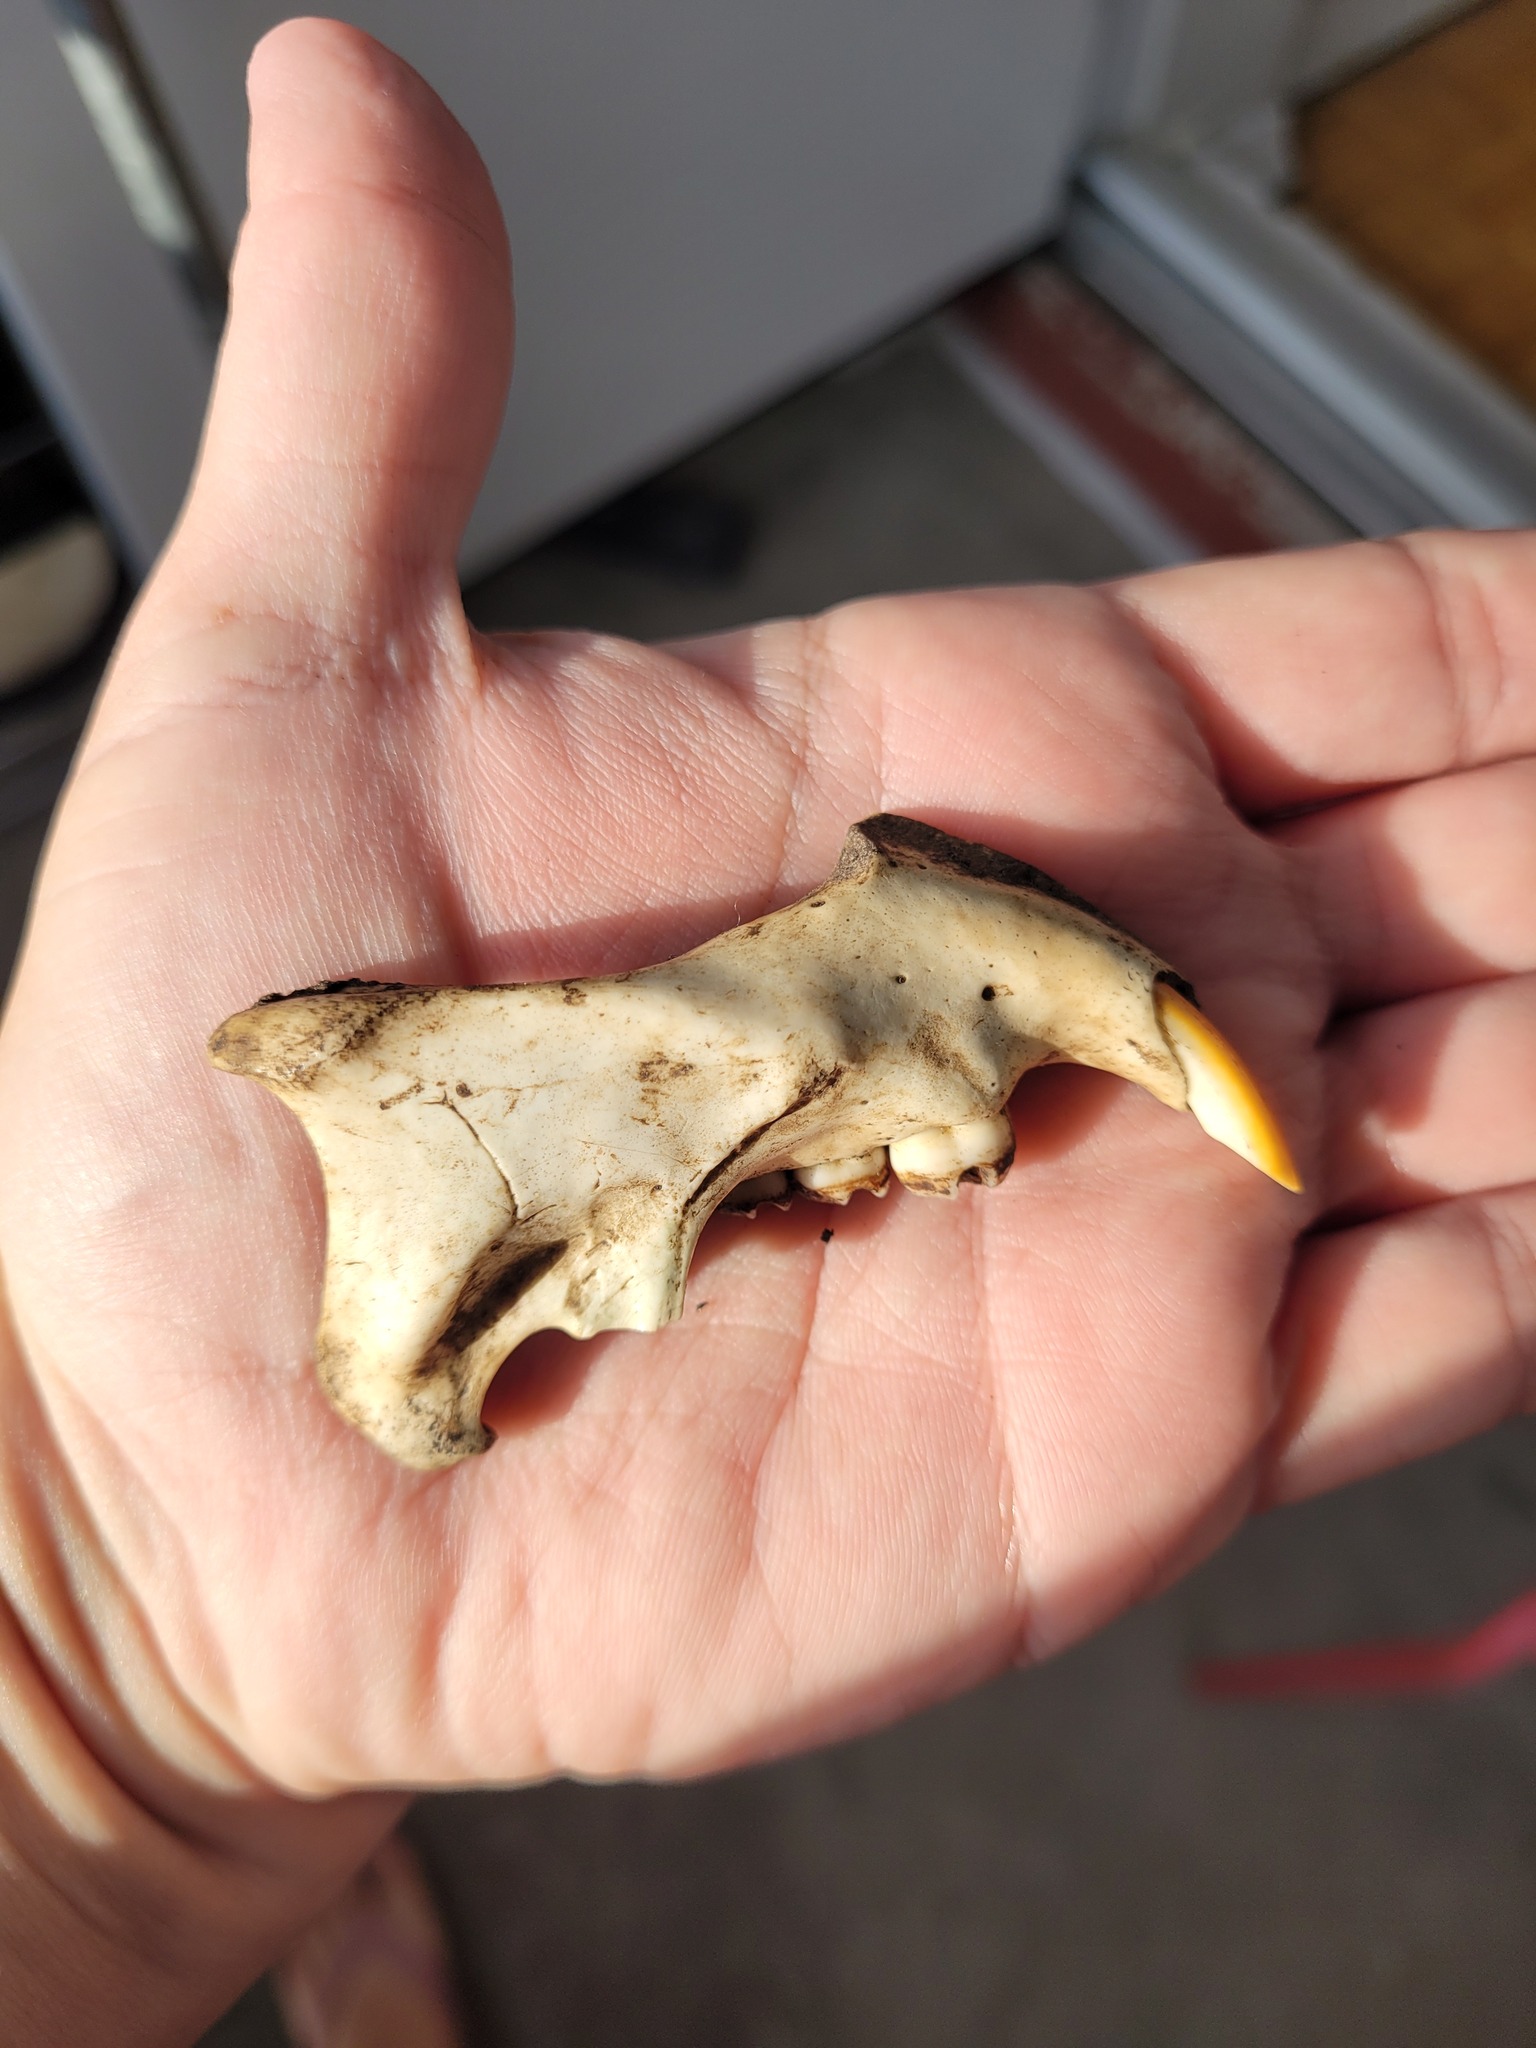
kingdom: Animalia
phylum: Chordata
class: Mammalia
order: Rodentia
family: Erethizontidae
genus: Erethizon
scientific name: Erethizon dorsatus
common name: North american porcupine
